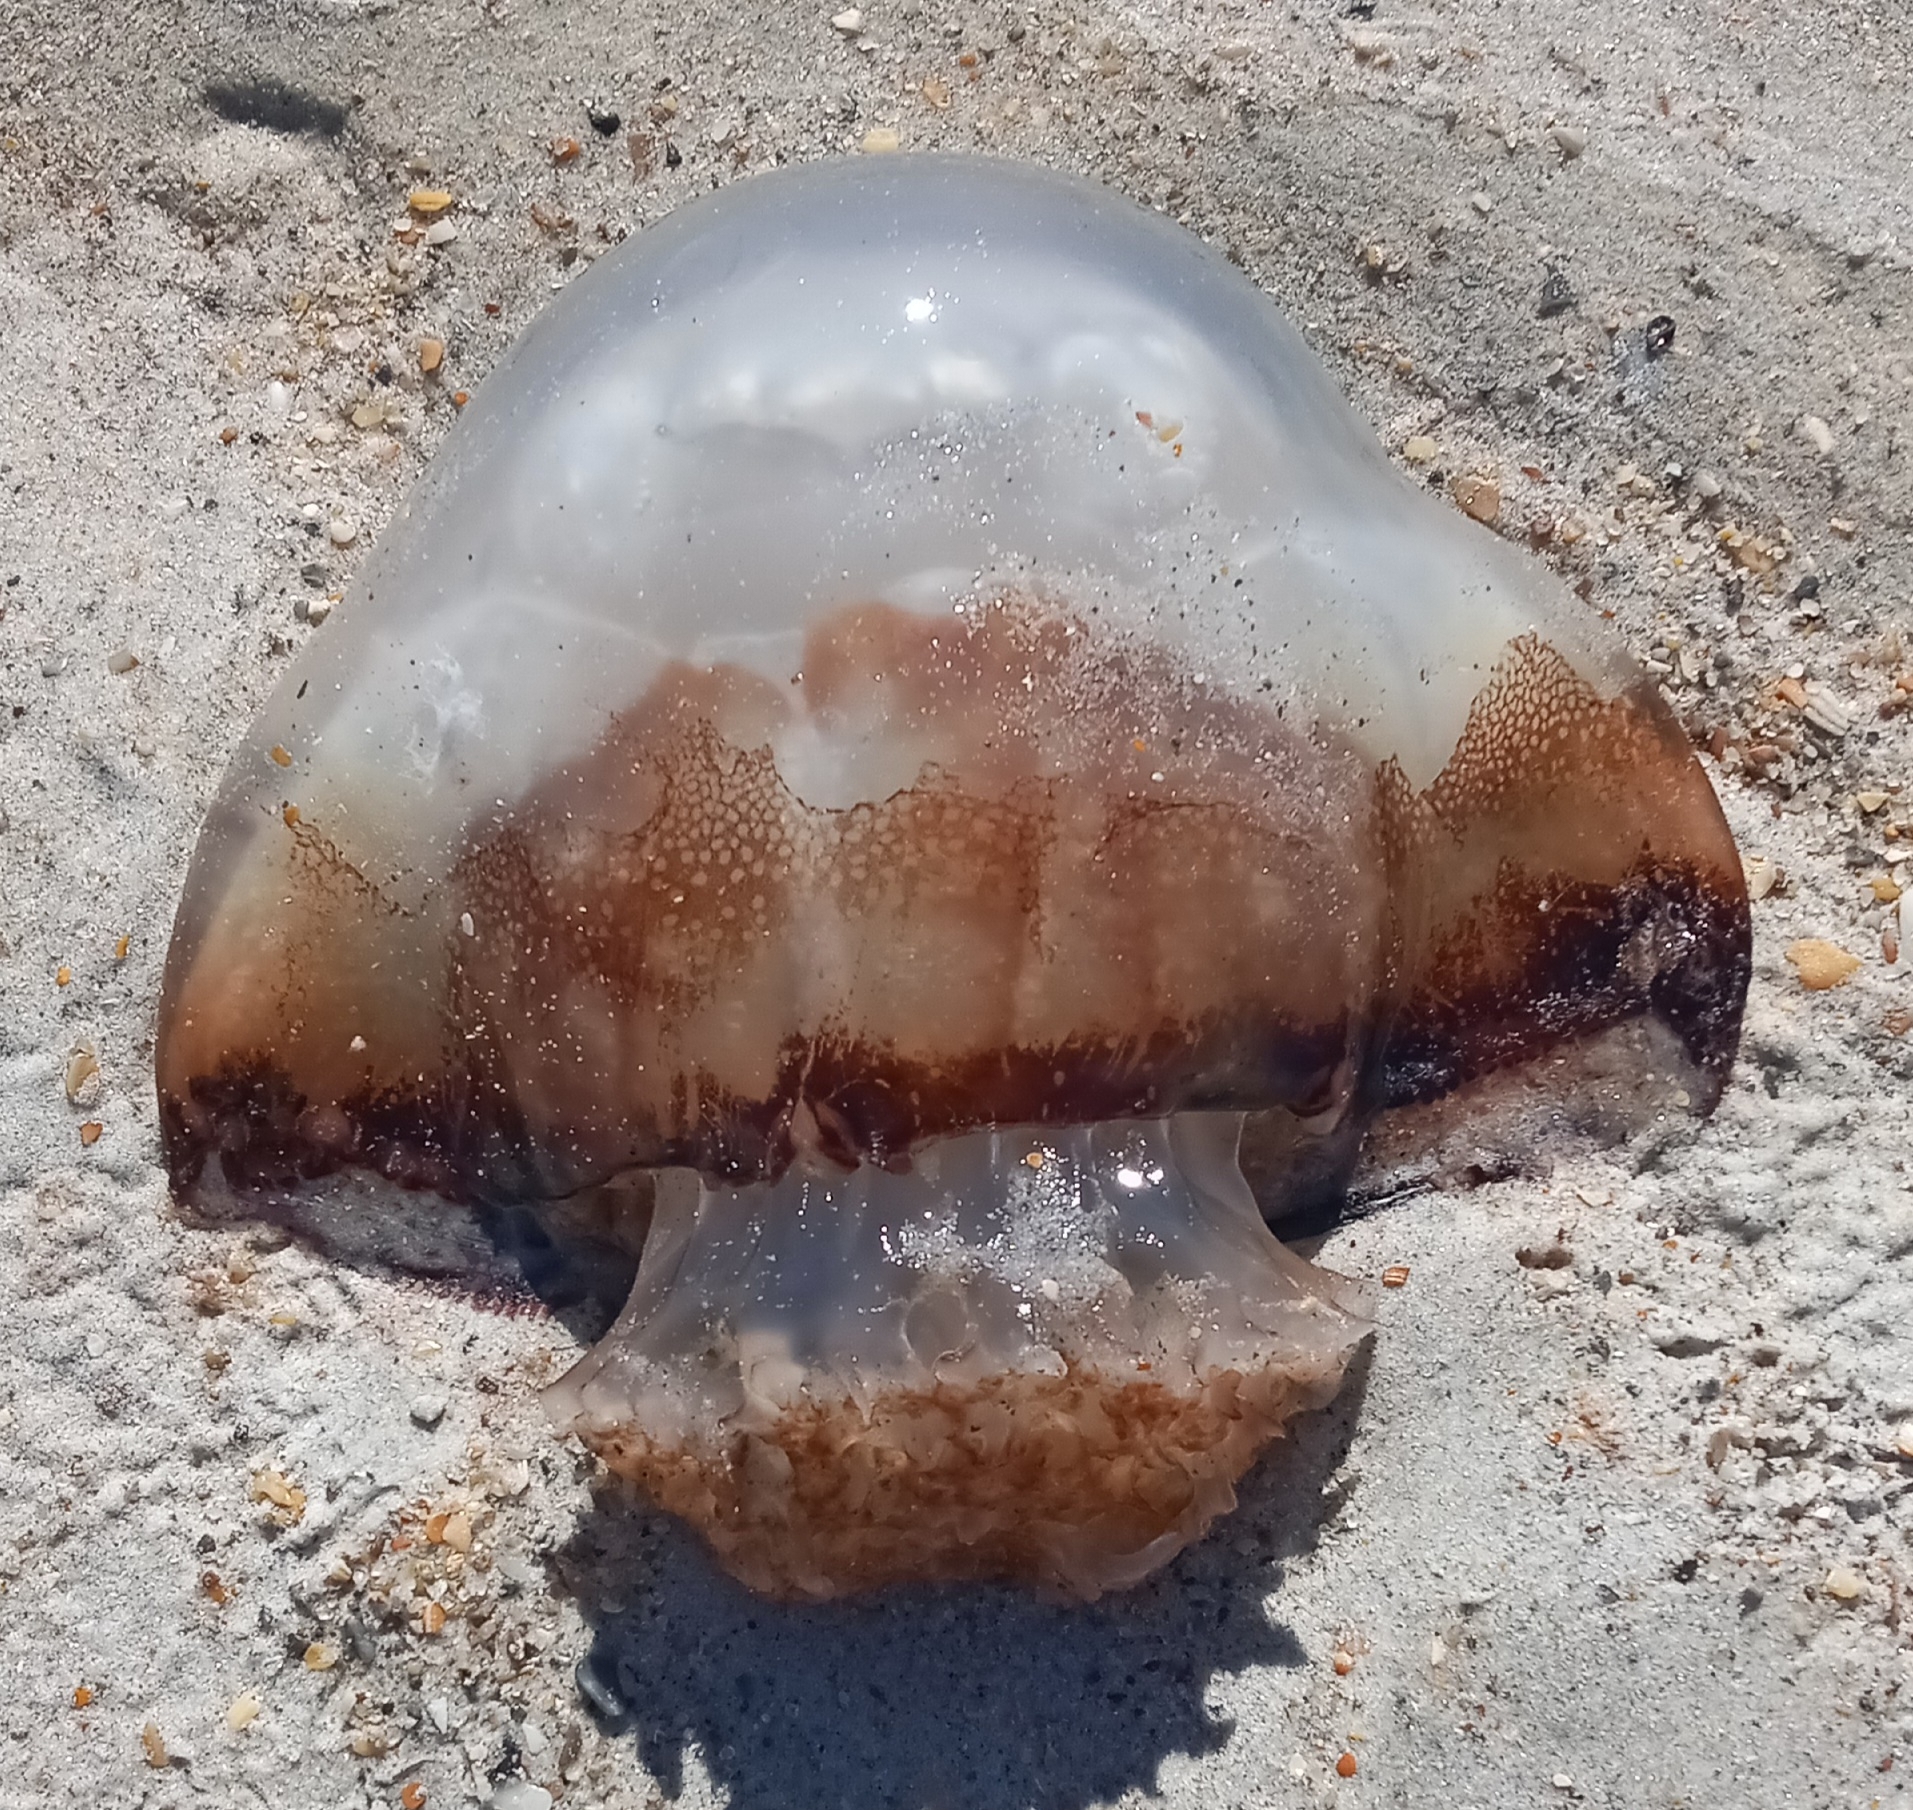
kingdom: Animalia
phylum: Cnidaria
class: Scyphozoa
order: Rhizostomeae
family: Stomolophidae
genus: Stomolophus
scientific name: Stomolophus meleagris
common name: Cabbagehead
